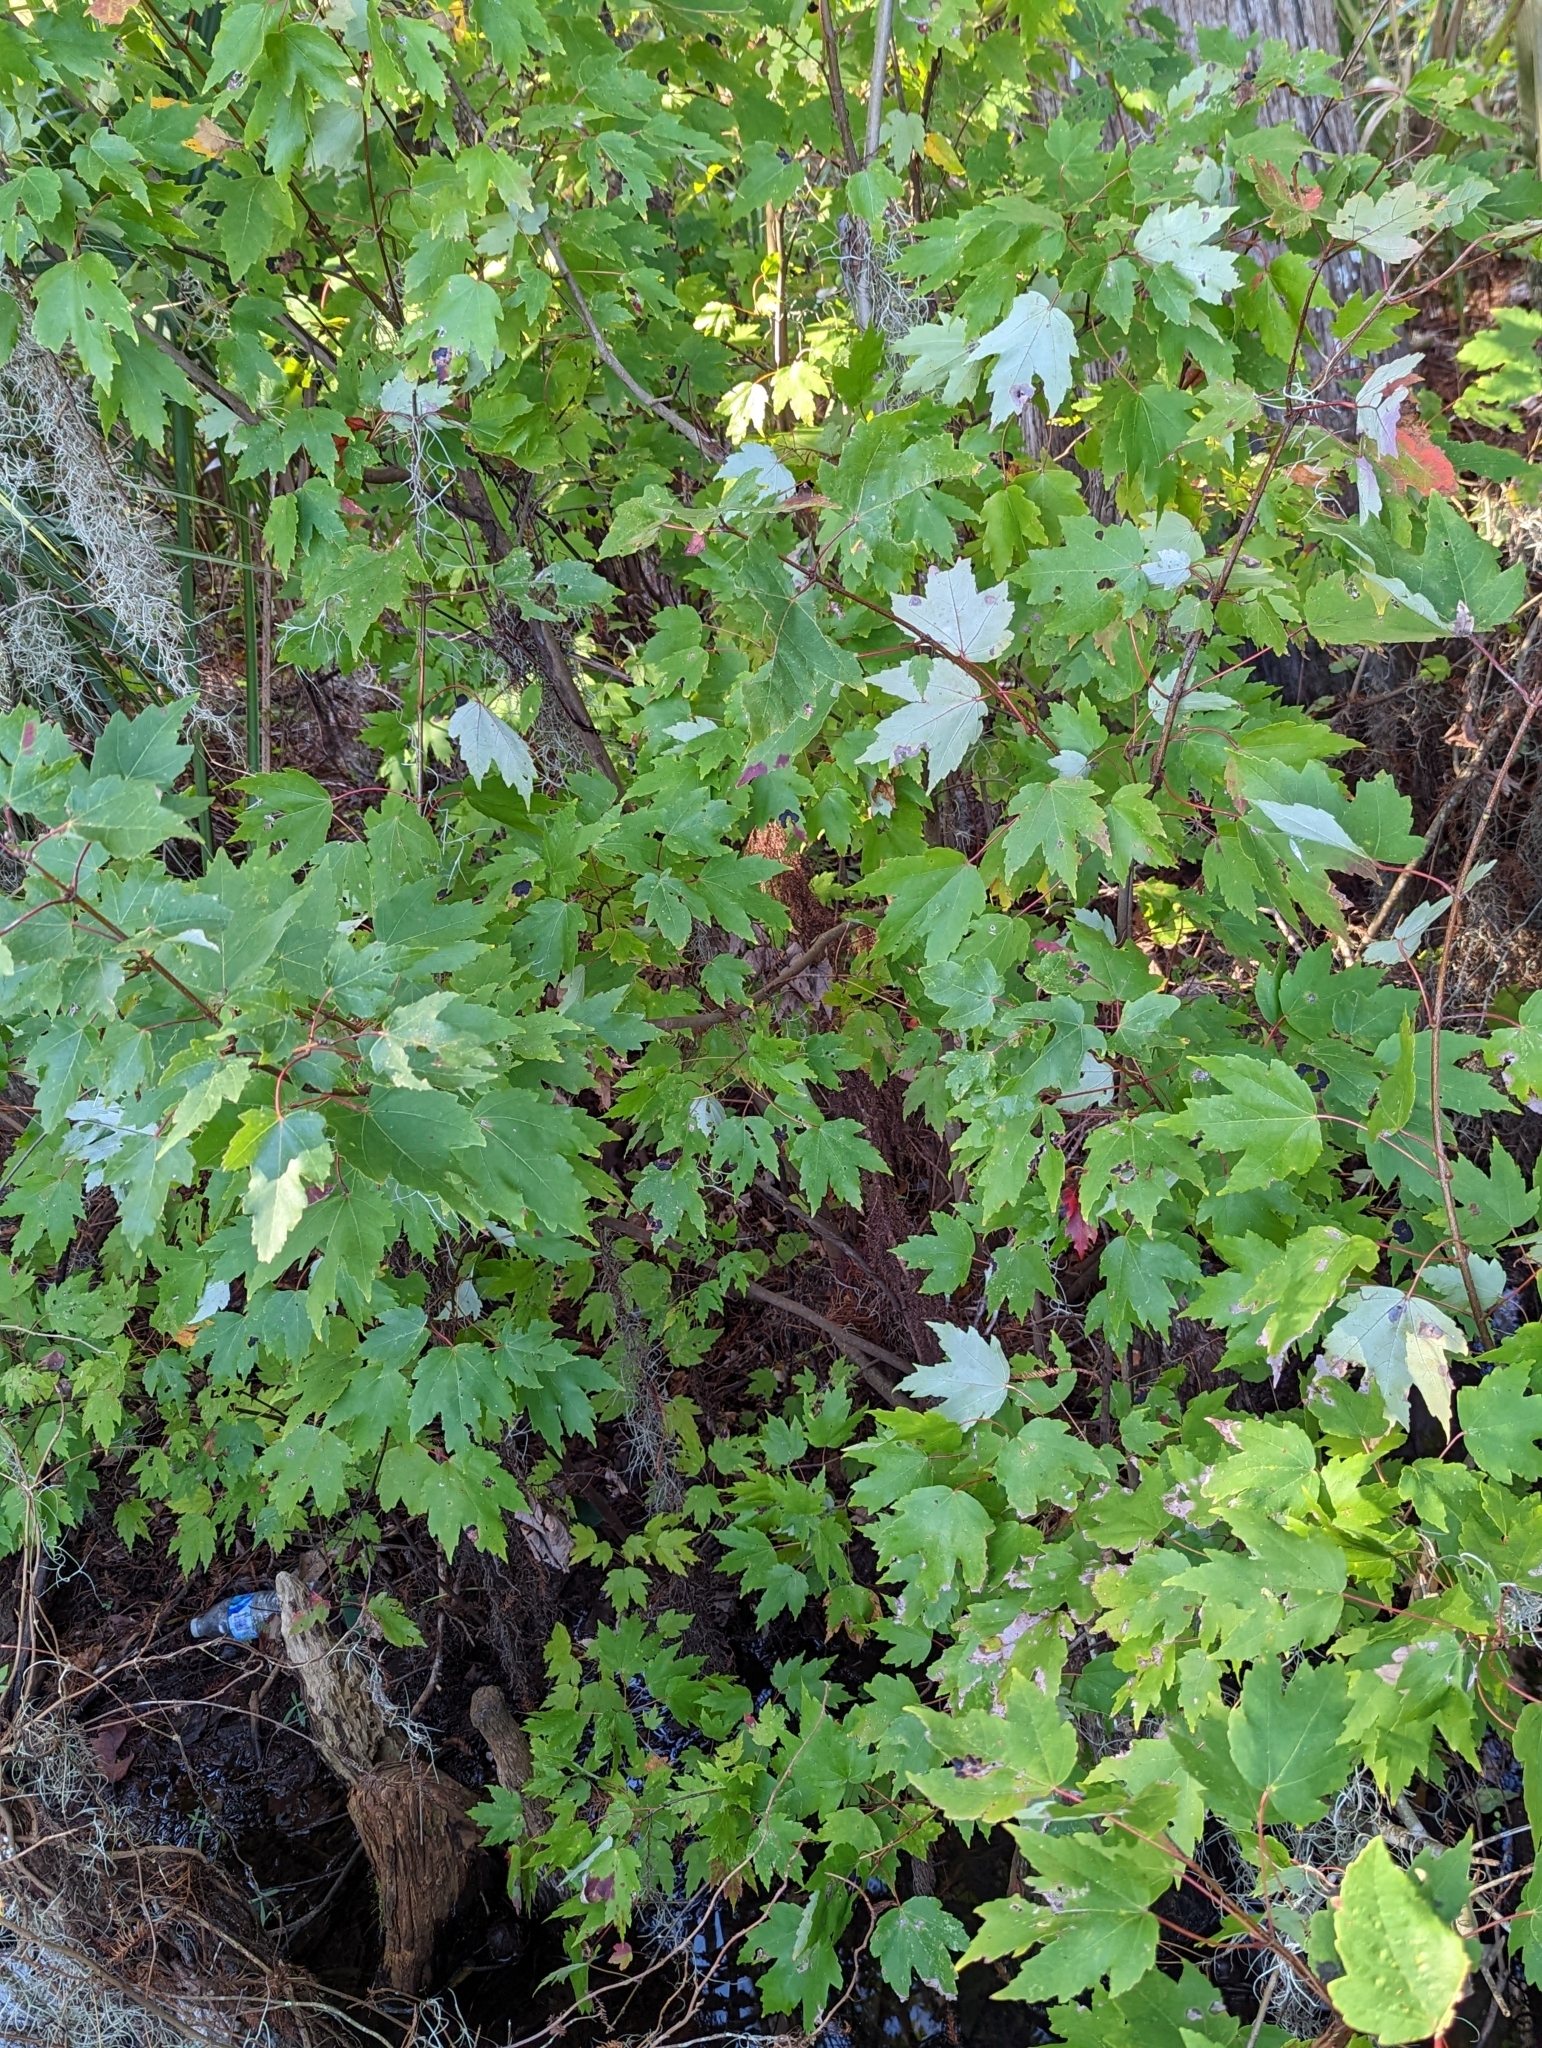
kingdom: Plantae
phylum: Tracheophyta
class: Magnoliopsida
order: Sapindales
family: Sapindaceae
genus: Acer
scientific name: Acer rubrum
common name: Red maple
